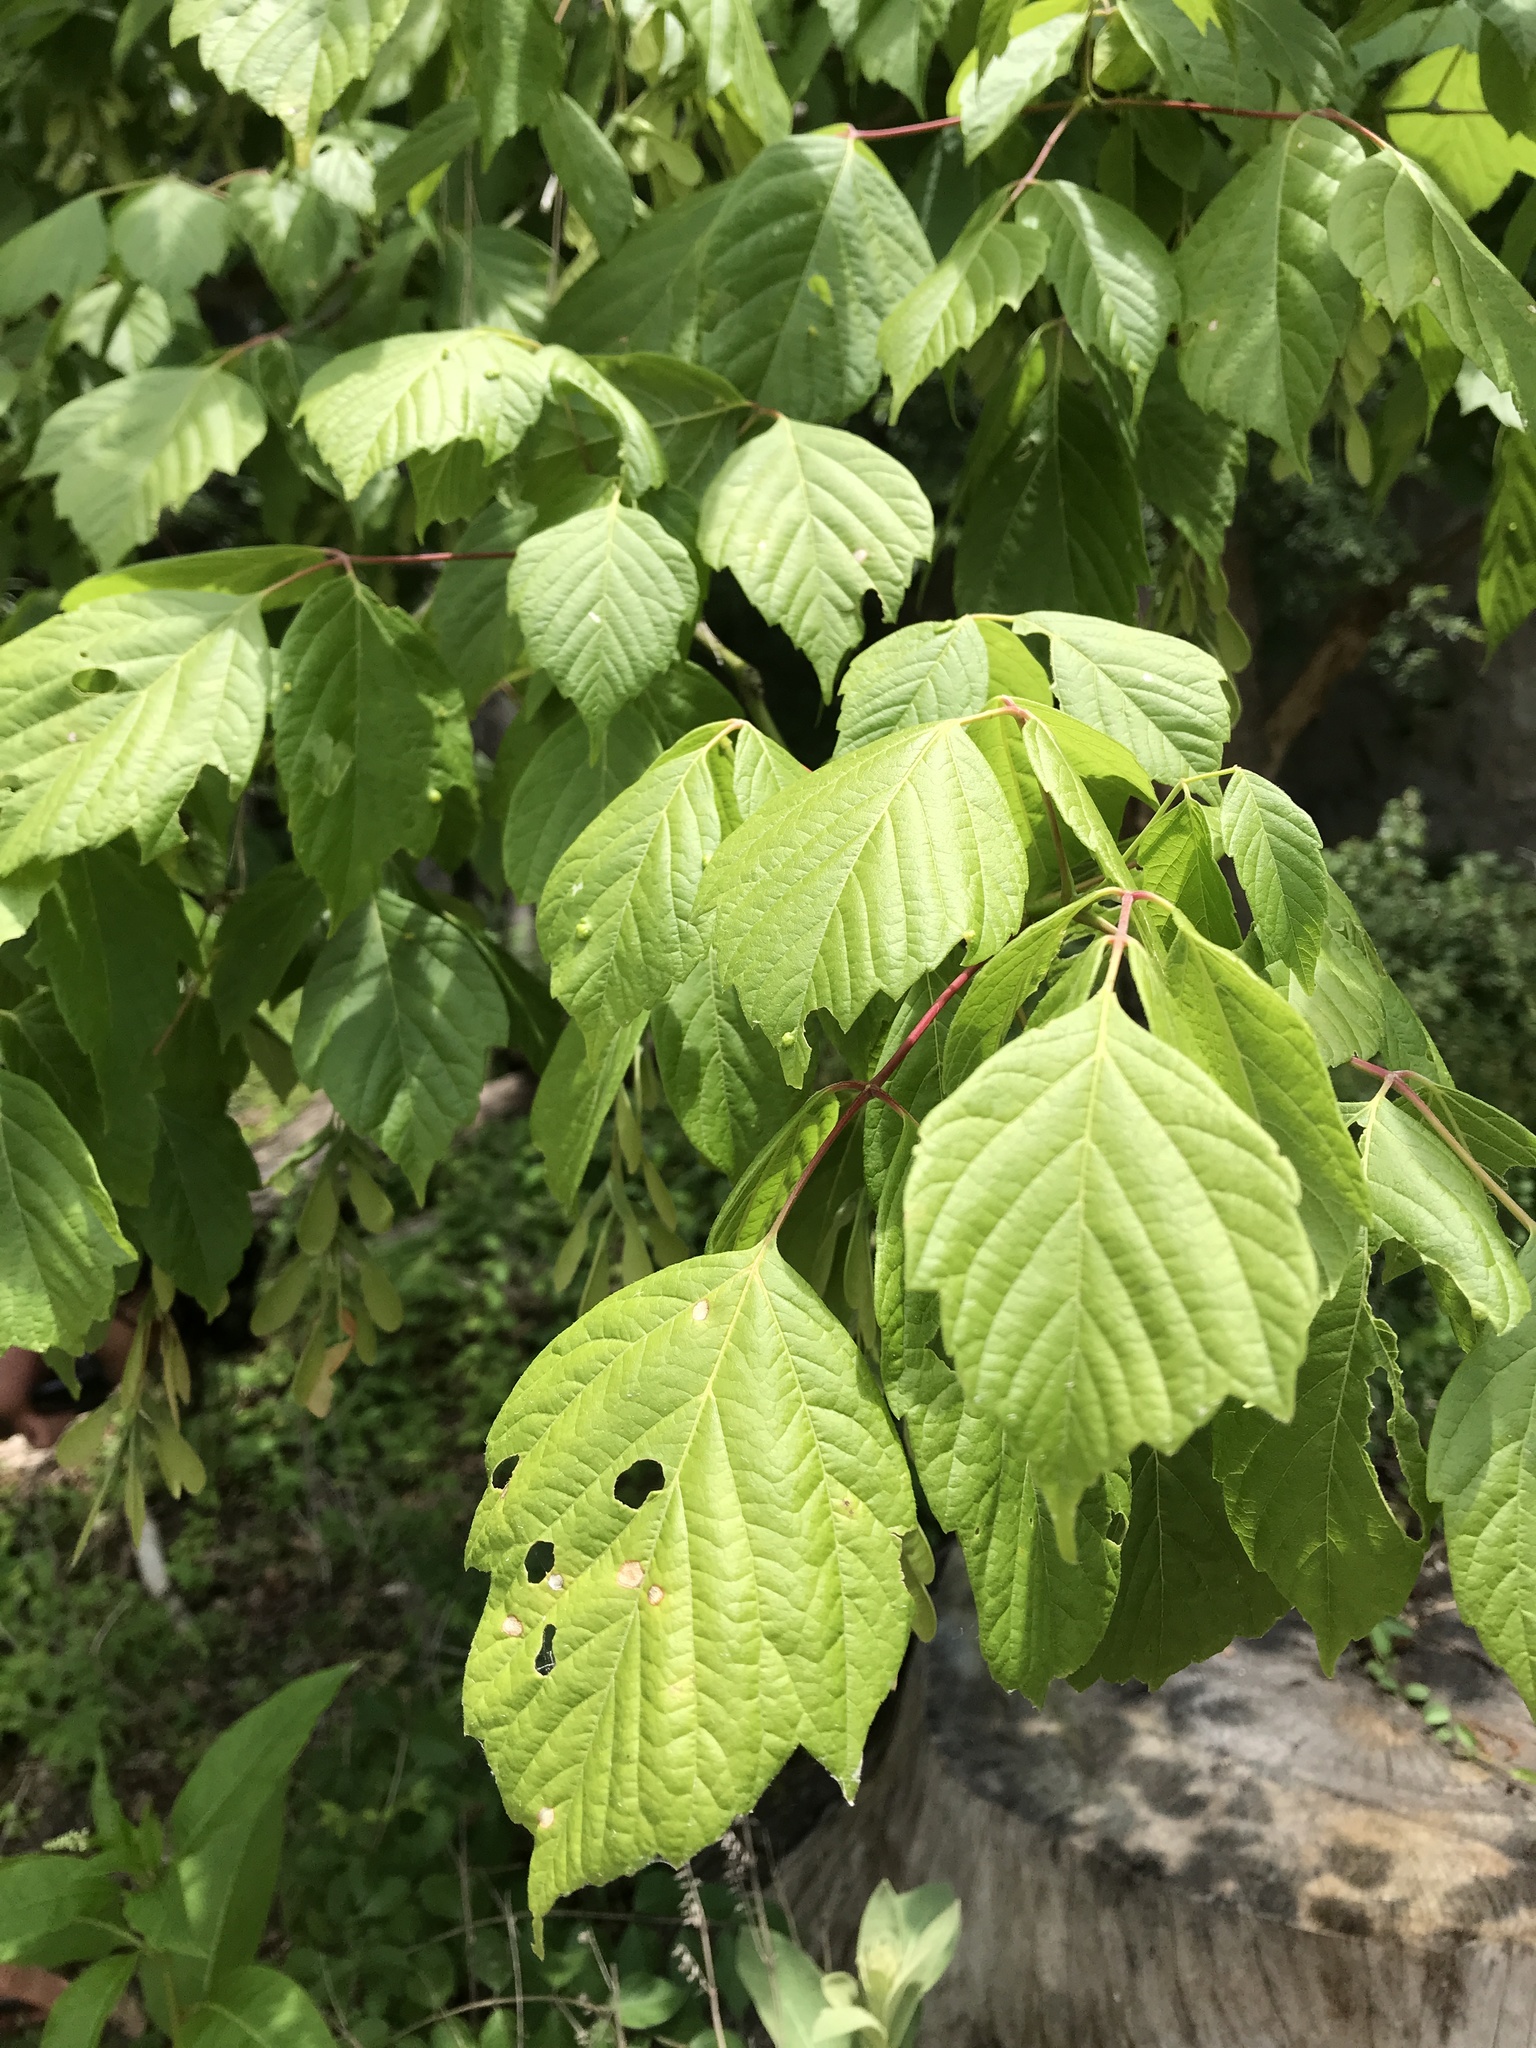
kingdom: Plantae
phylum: Tracheophyta
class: Magnoliopsida
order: Sapindales
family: Sapindaceae
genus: Acer
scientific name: Acer negundo
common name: Ashleaf maple
